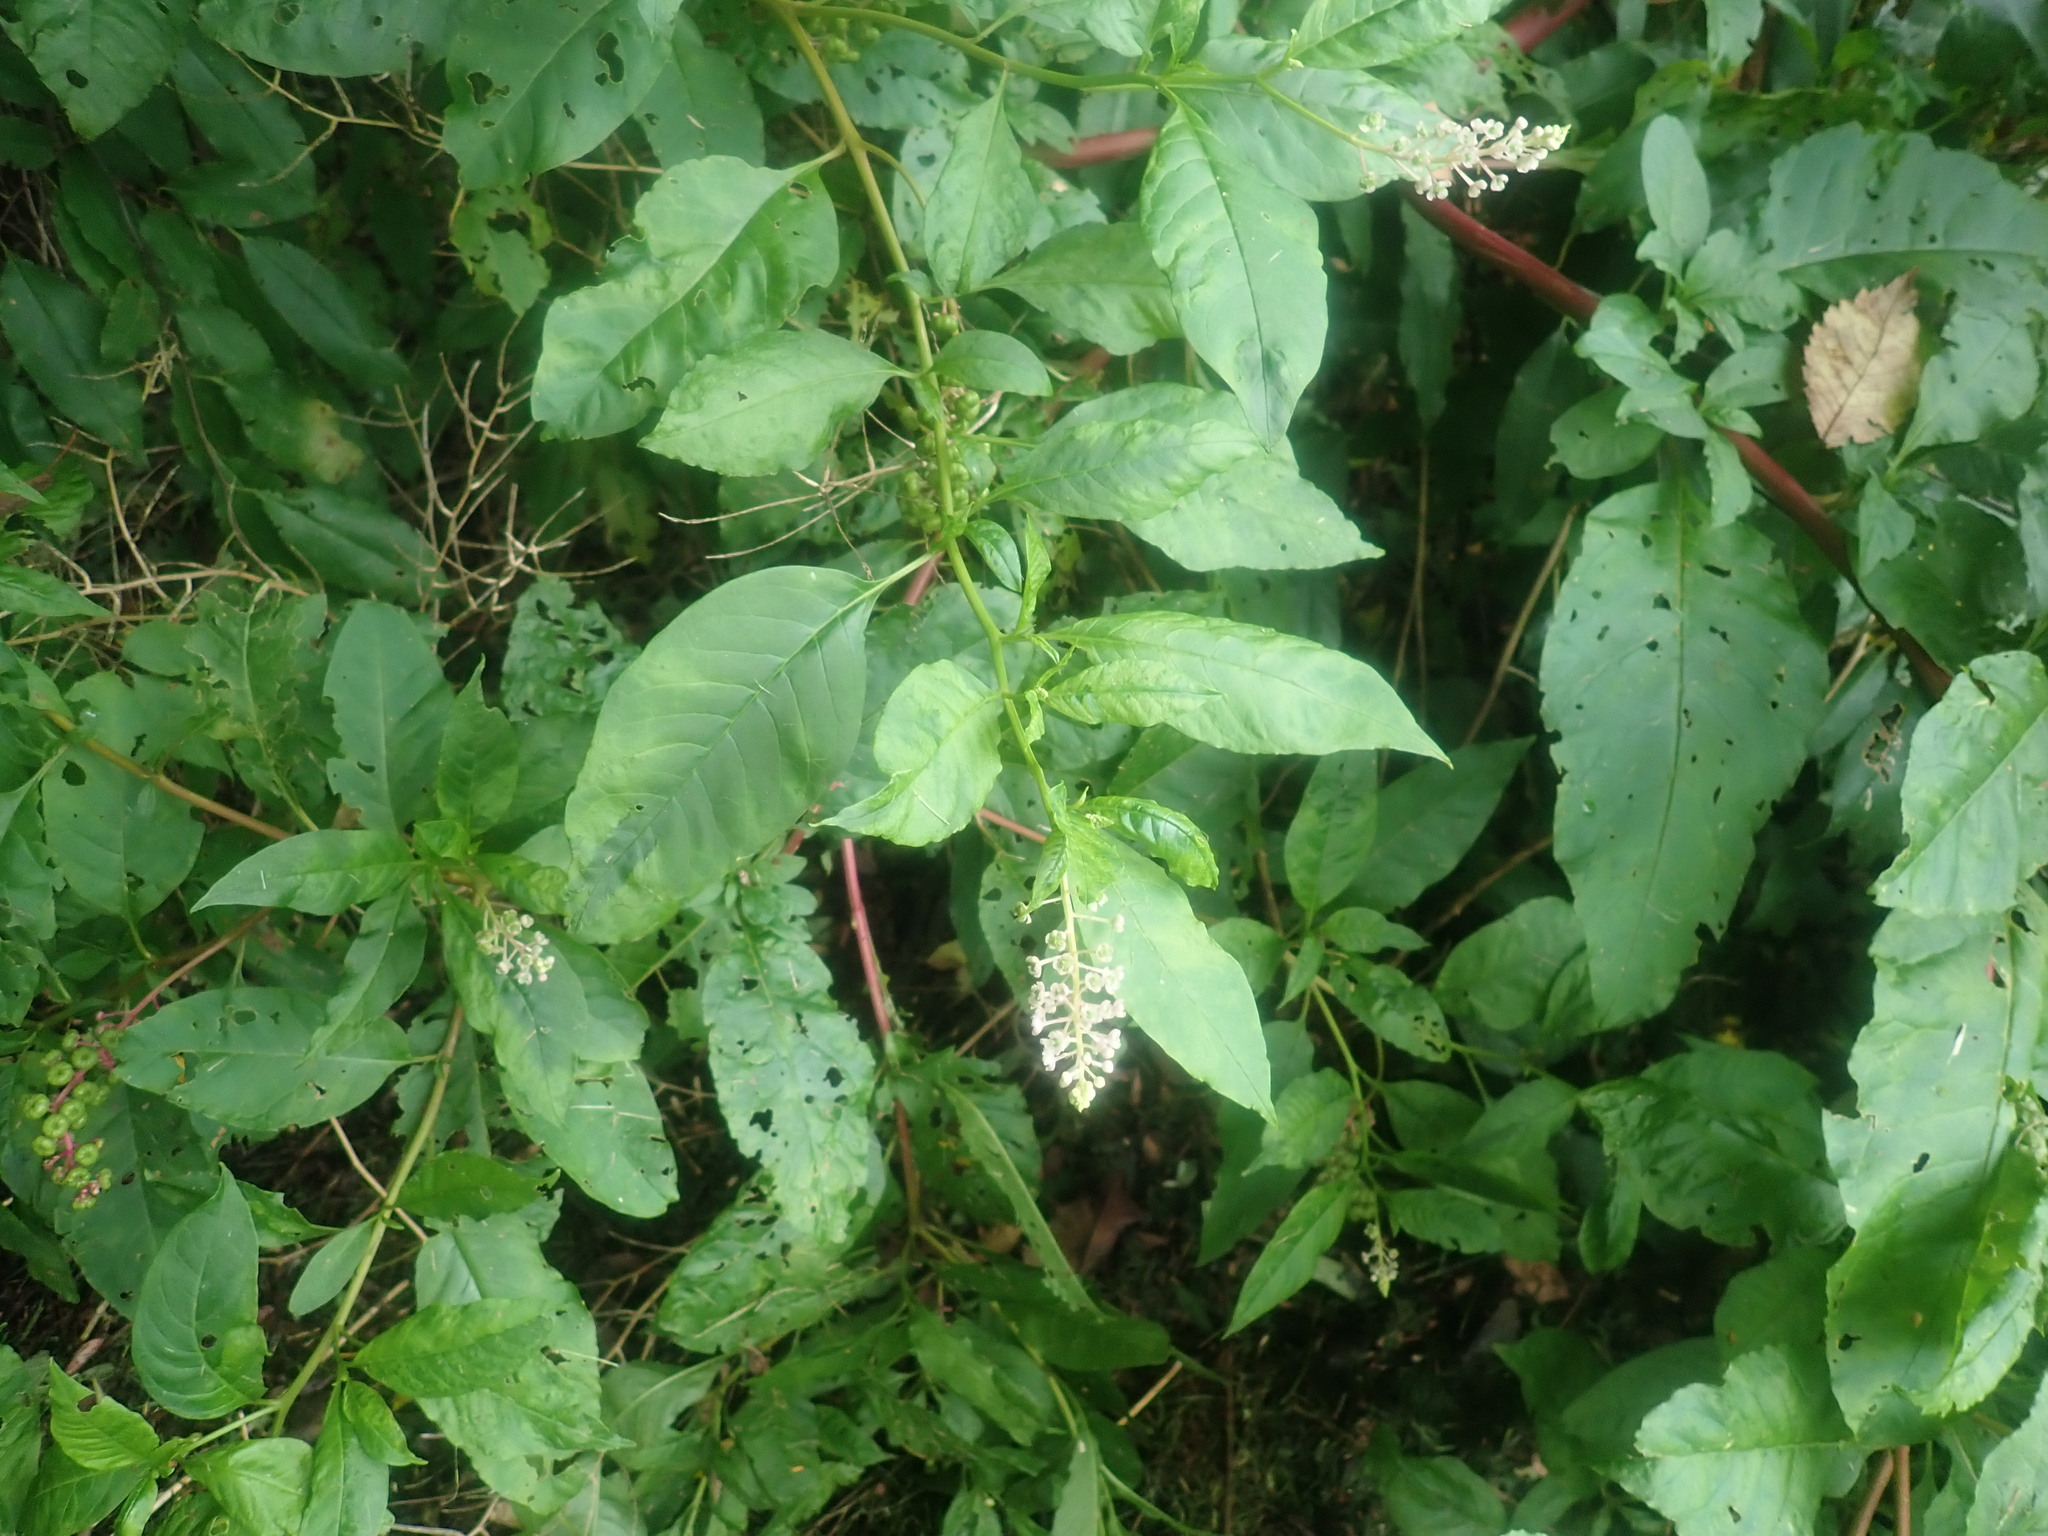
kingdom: Plantae
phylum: Tracheophyta
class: Magnoliopsida
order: Caryophyllales
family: Phytolaccaceae
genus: Phytolacca
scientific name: Phytolacca americana
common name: American pokeweed
